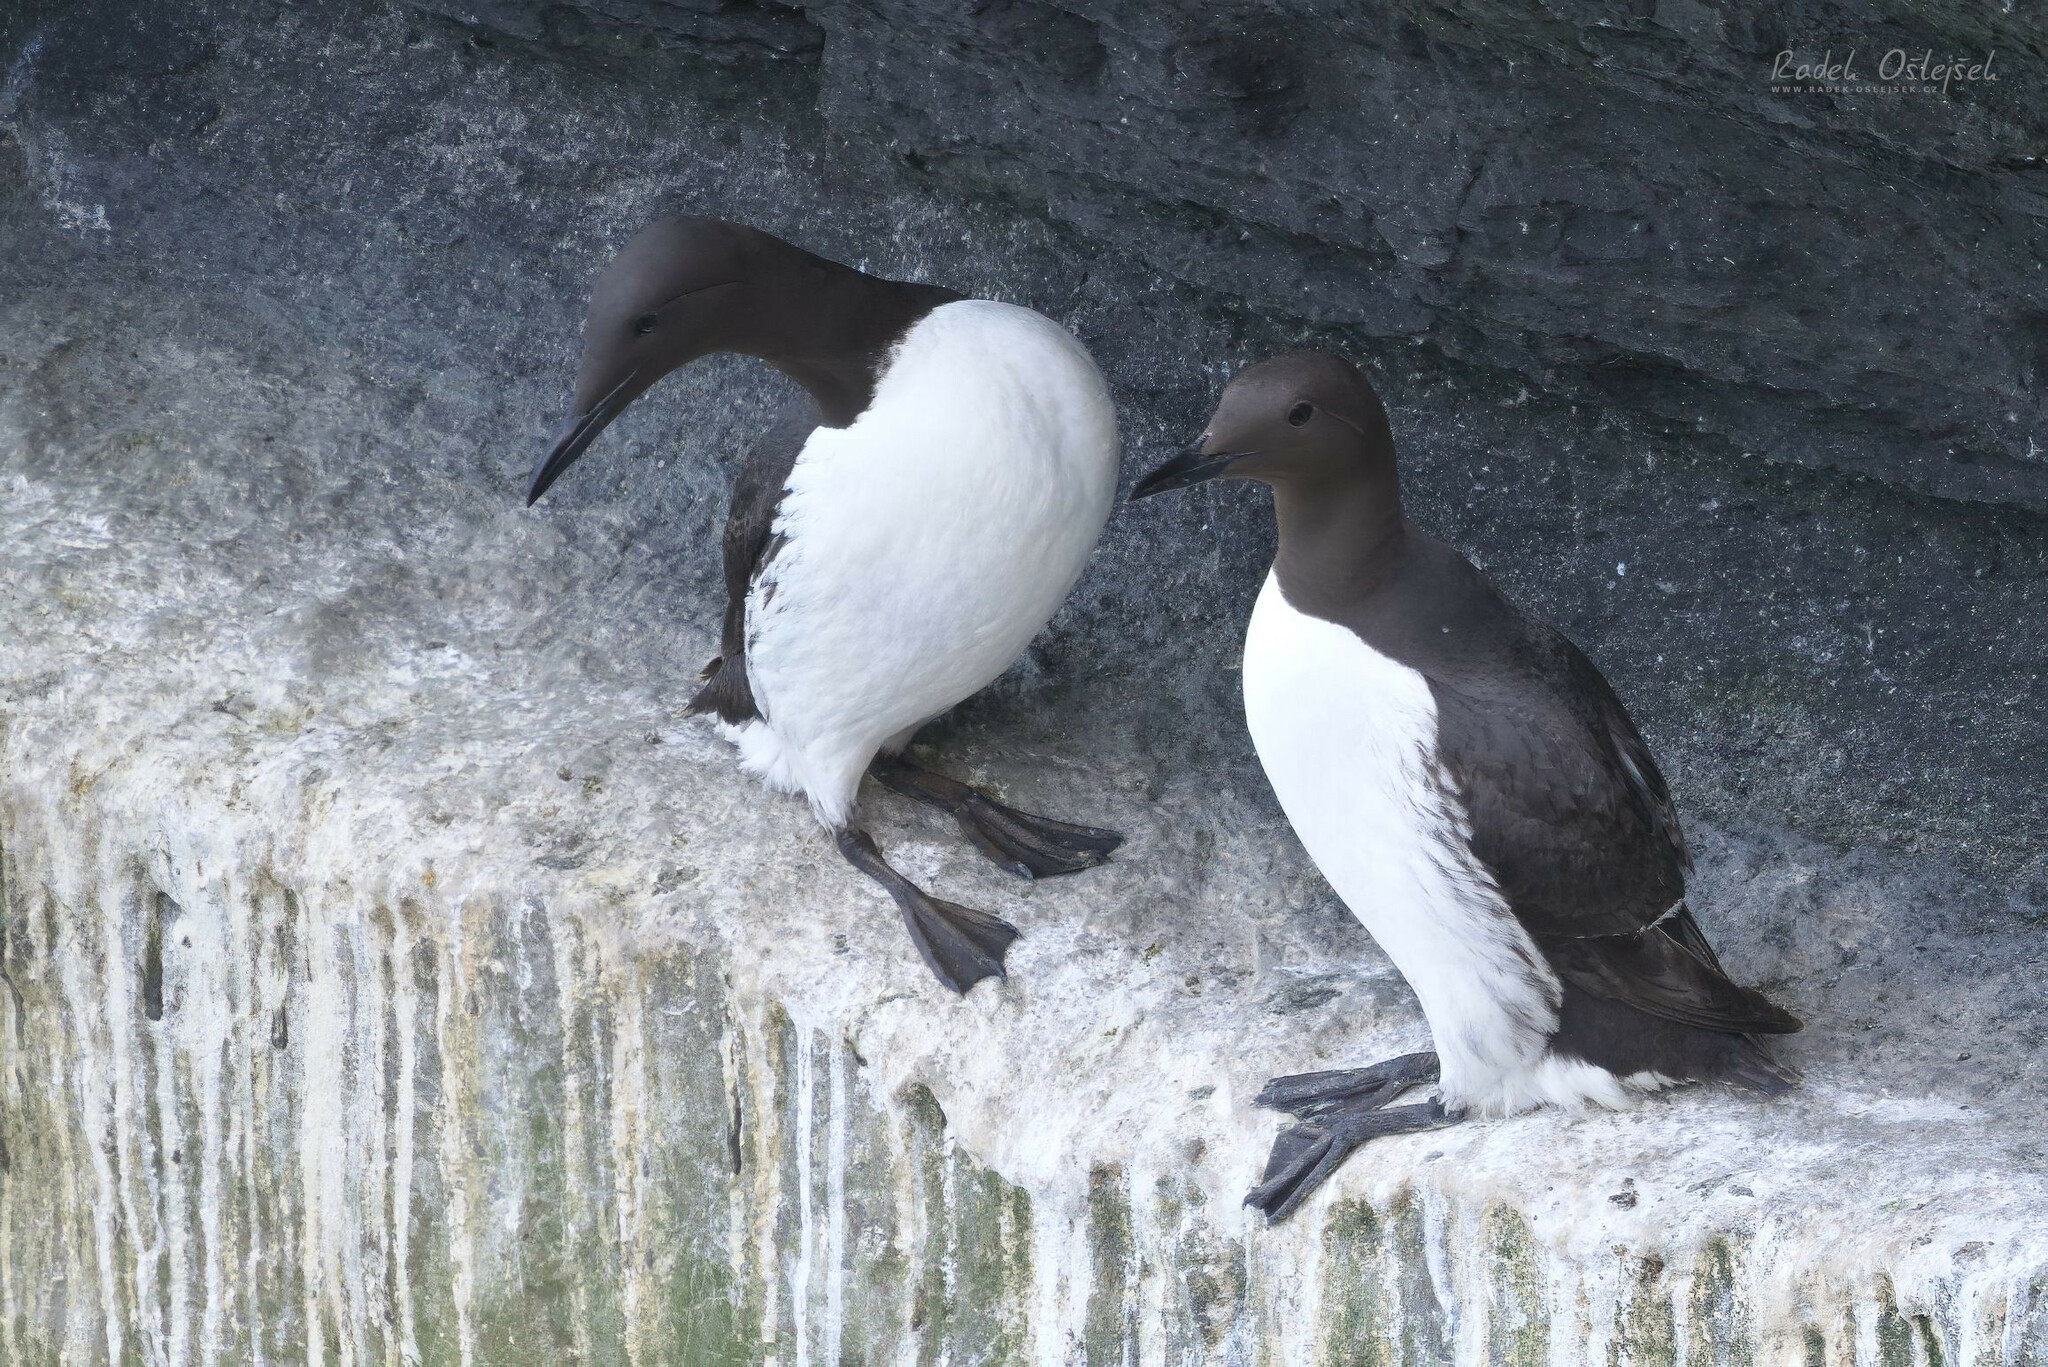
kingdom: Animalia
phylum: Chordata
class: Aves
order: Charadriiformes
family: Alcidae
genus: Uria
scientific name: Uria aalge
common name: Common murre
